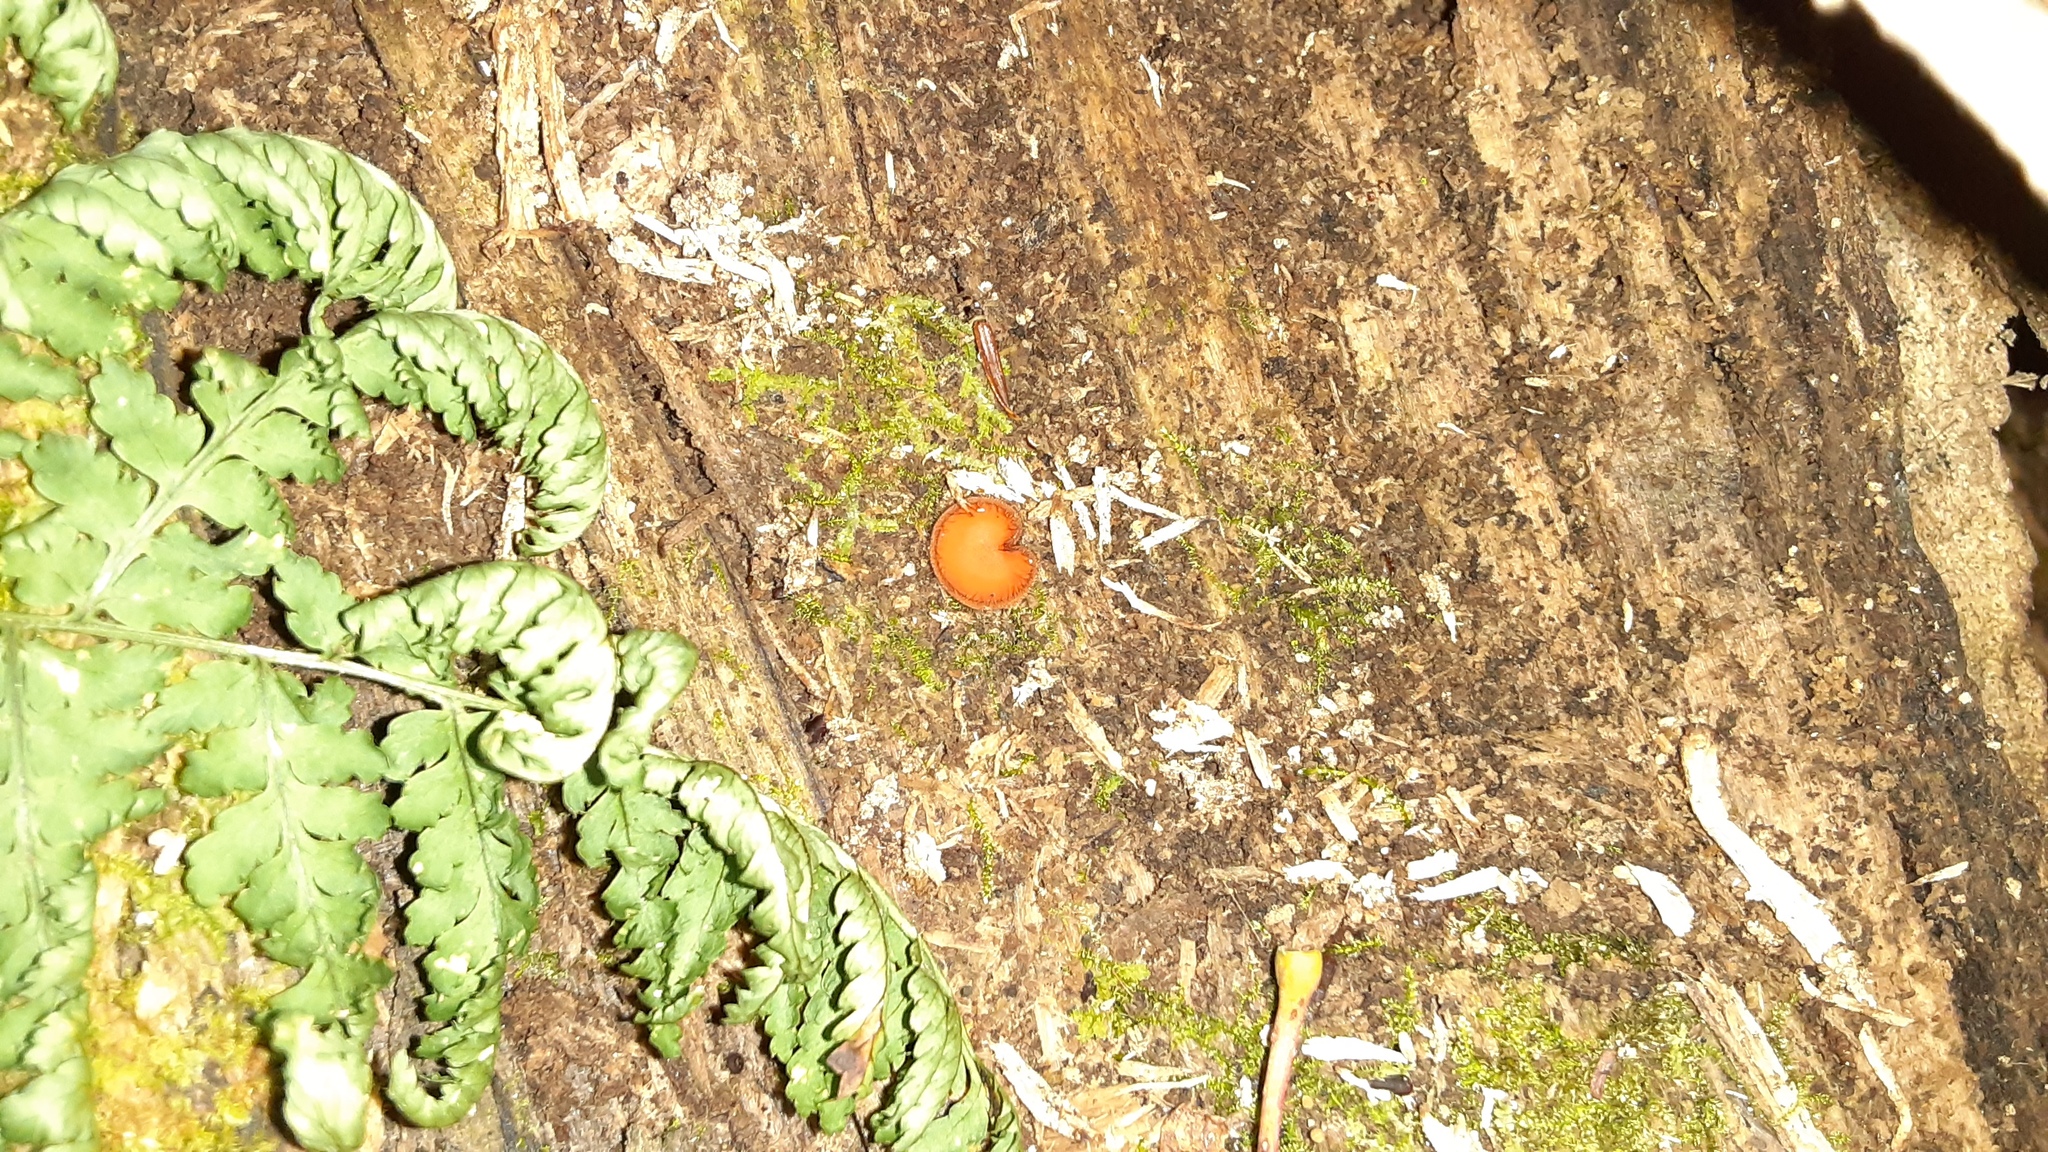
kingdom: Fungi
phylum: Ascomycota
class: Pezizomycetes
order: Pezizales
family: Pyronemataceae
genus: Scutellinia
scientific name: Scutellinia
